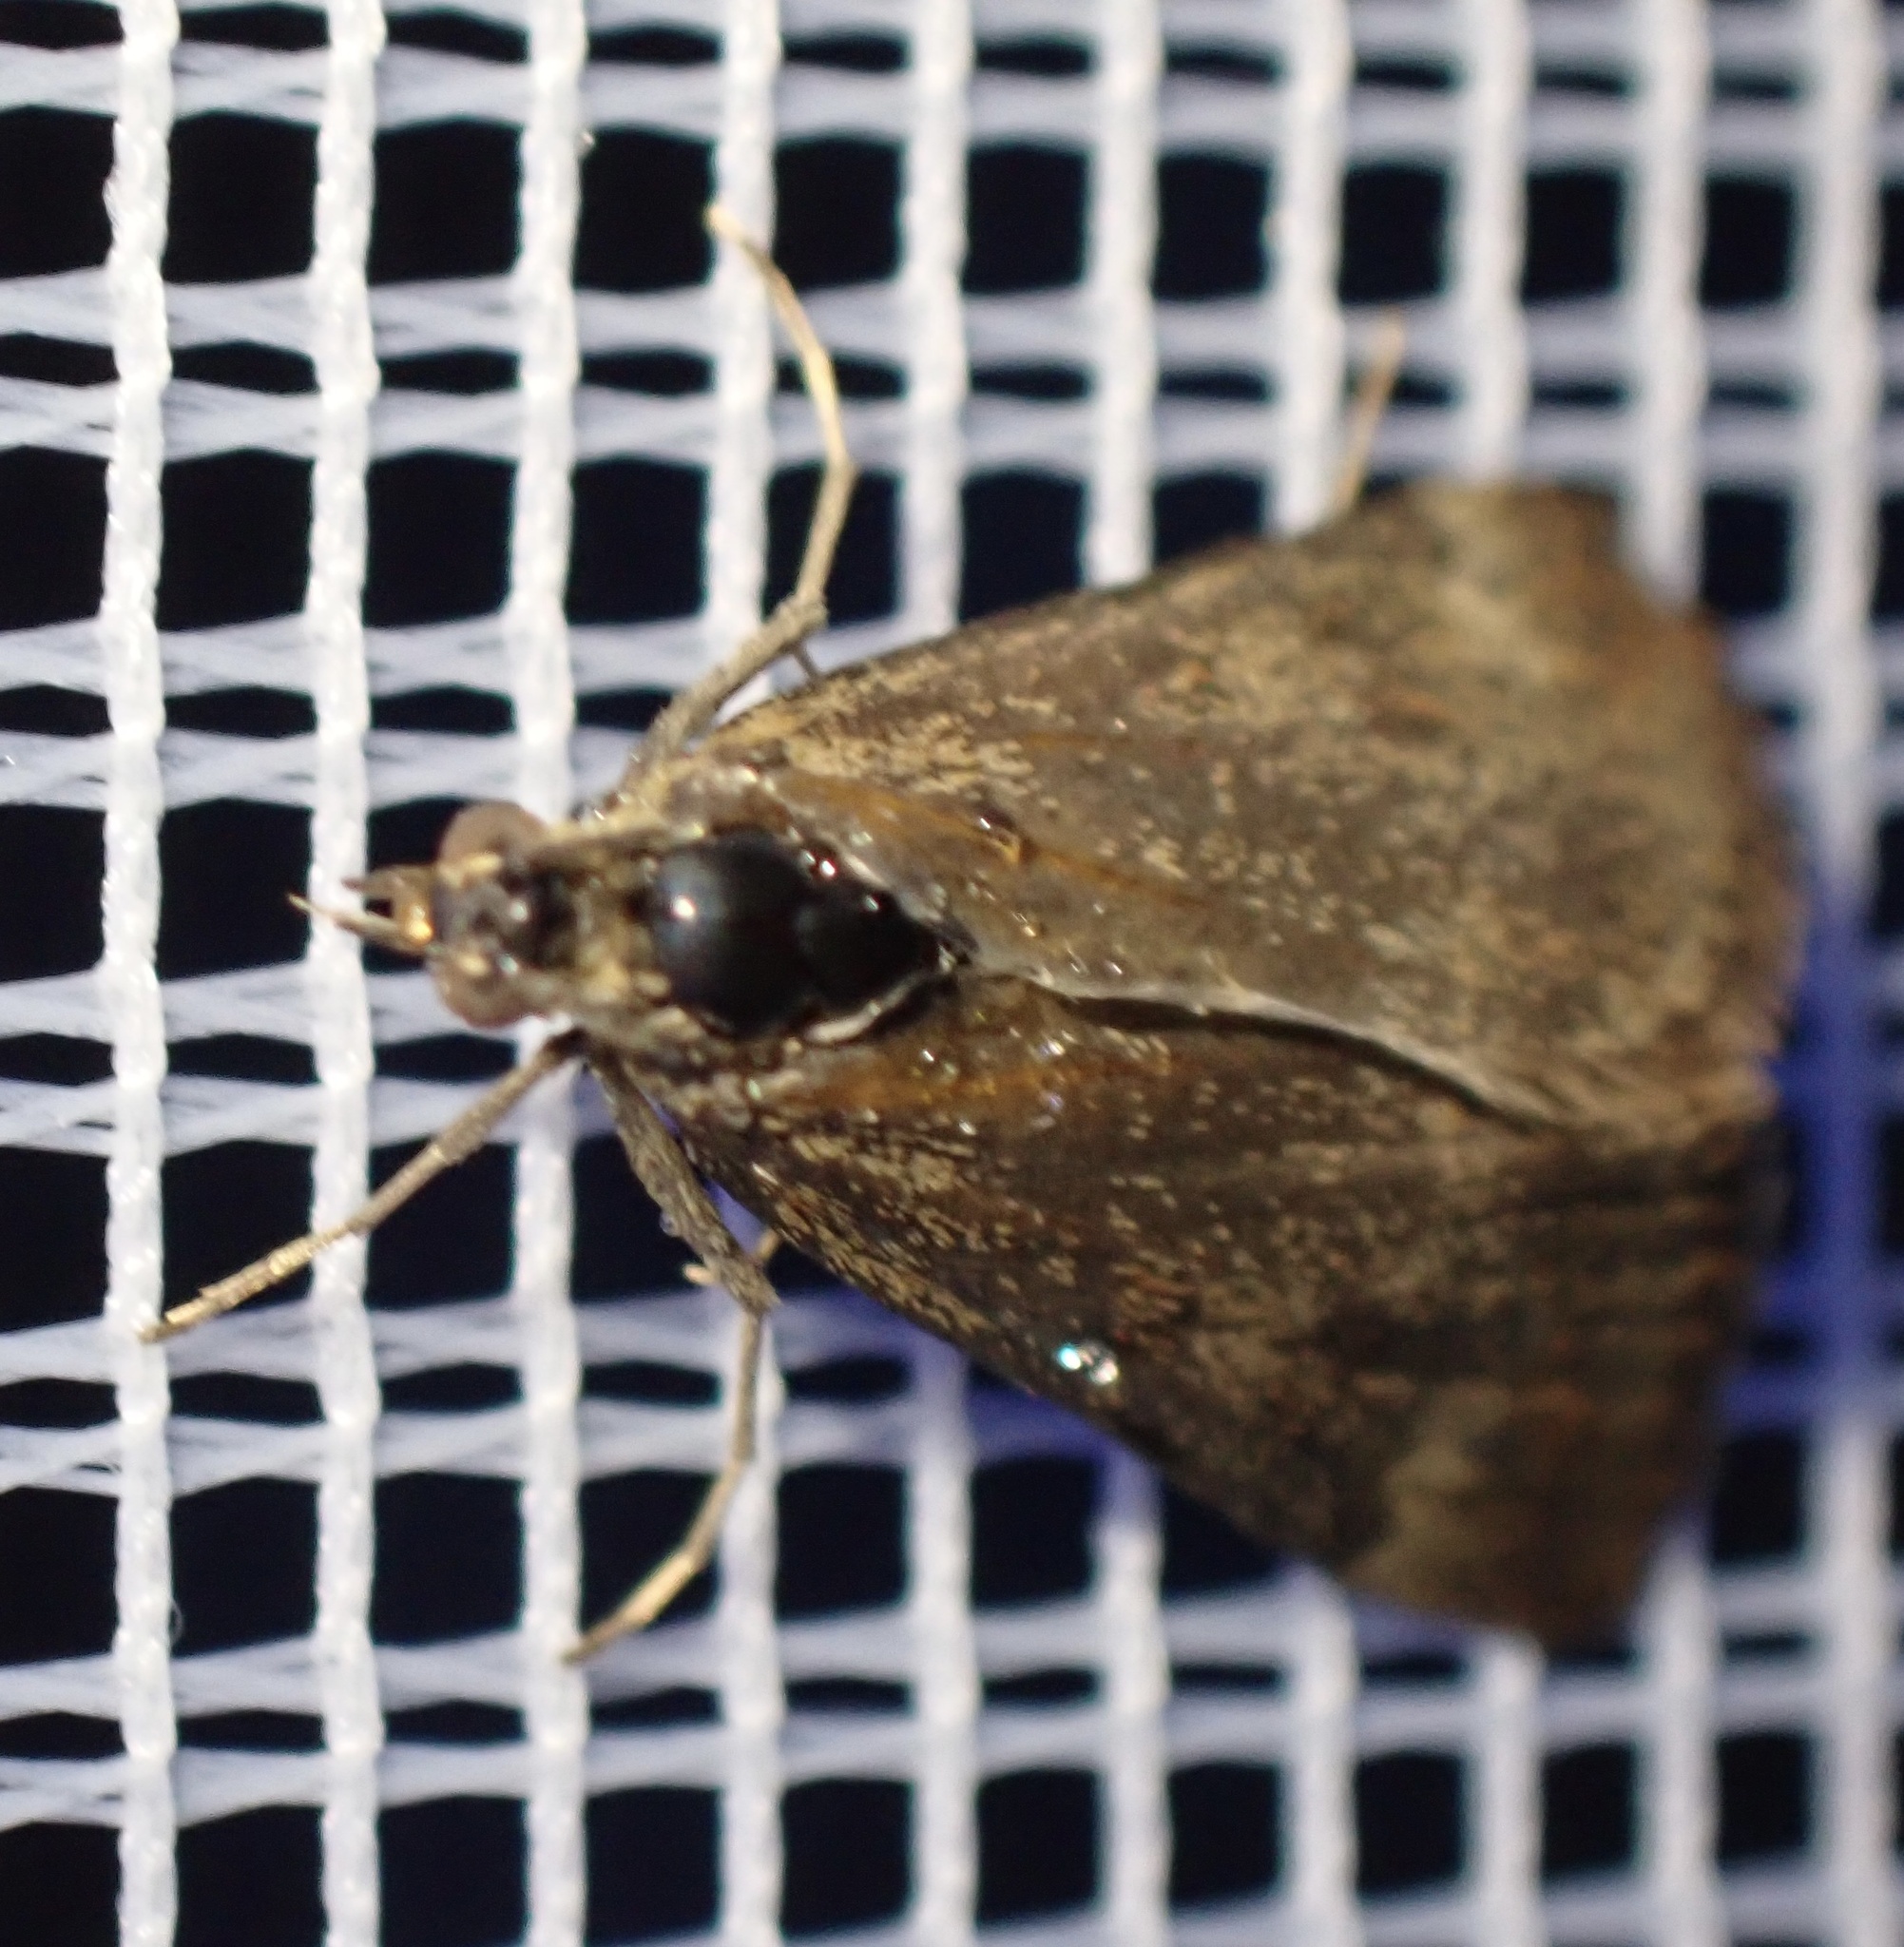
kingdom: Animalia
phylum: Arthropoda
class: Insecta
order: Lepidoptera
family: Crambidae
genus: Pyrausta
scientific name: Pyrausta despicata
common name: Straw-barred pearl
